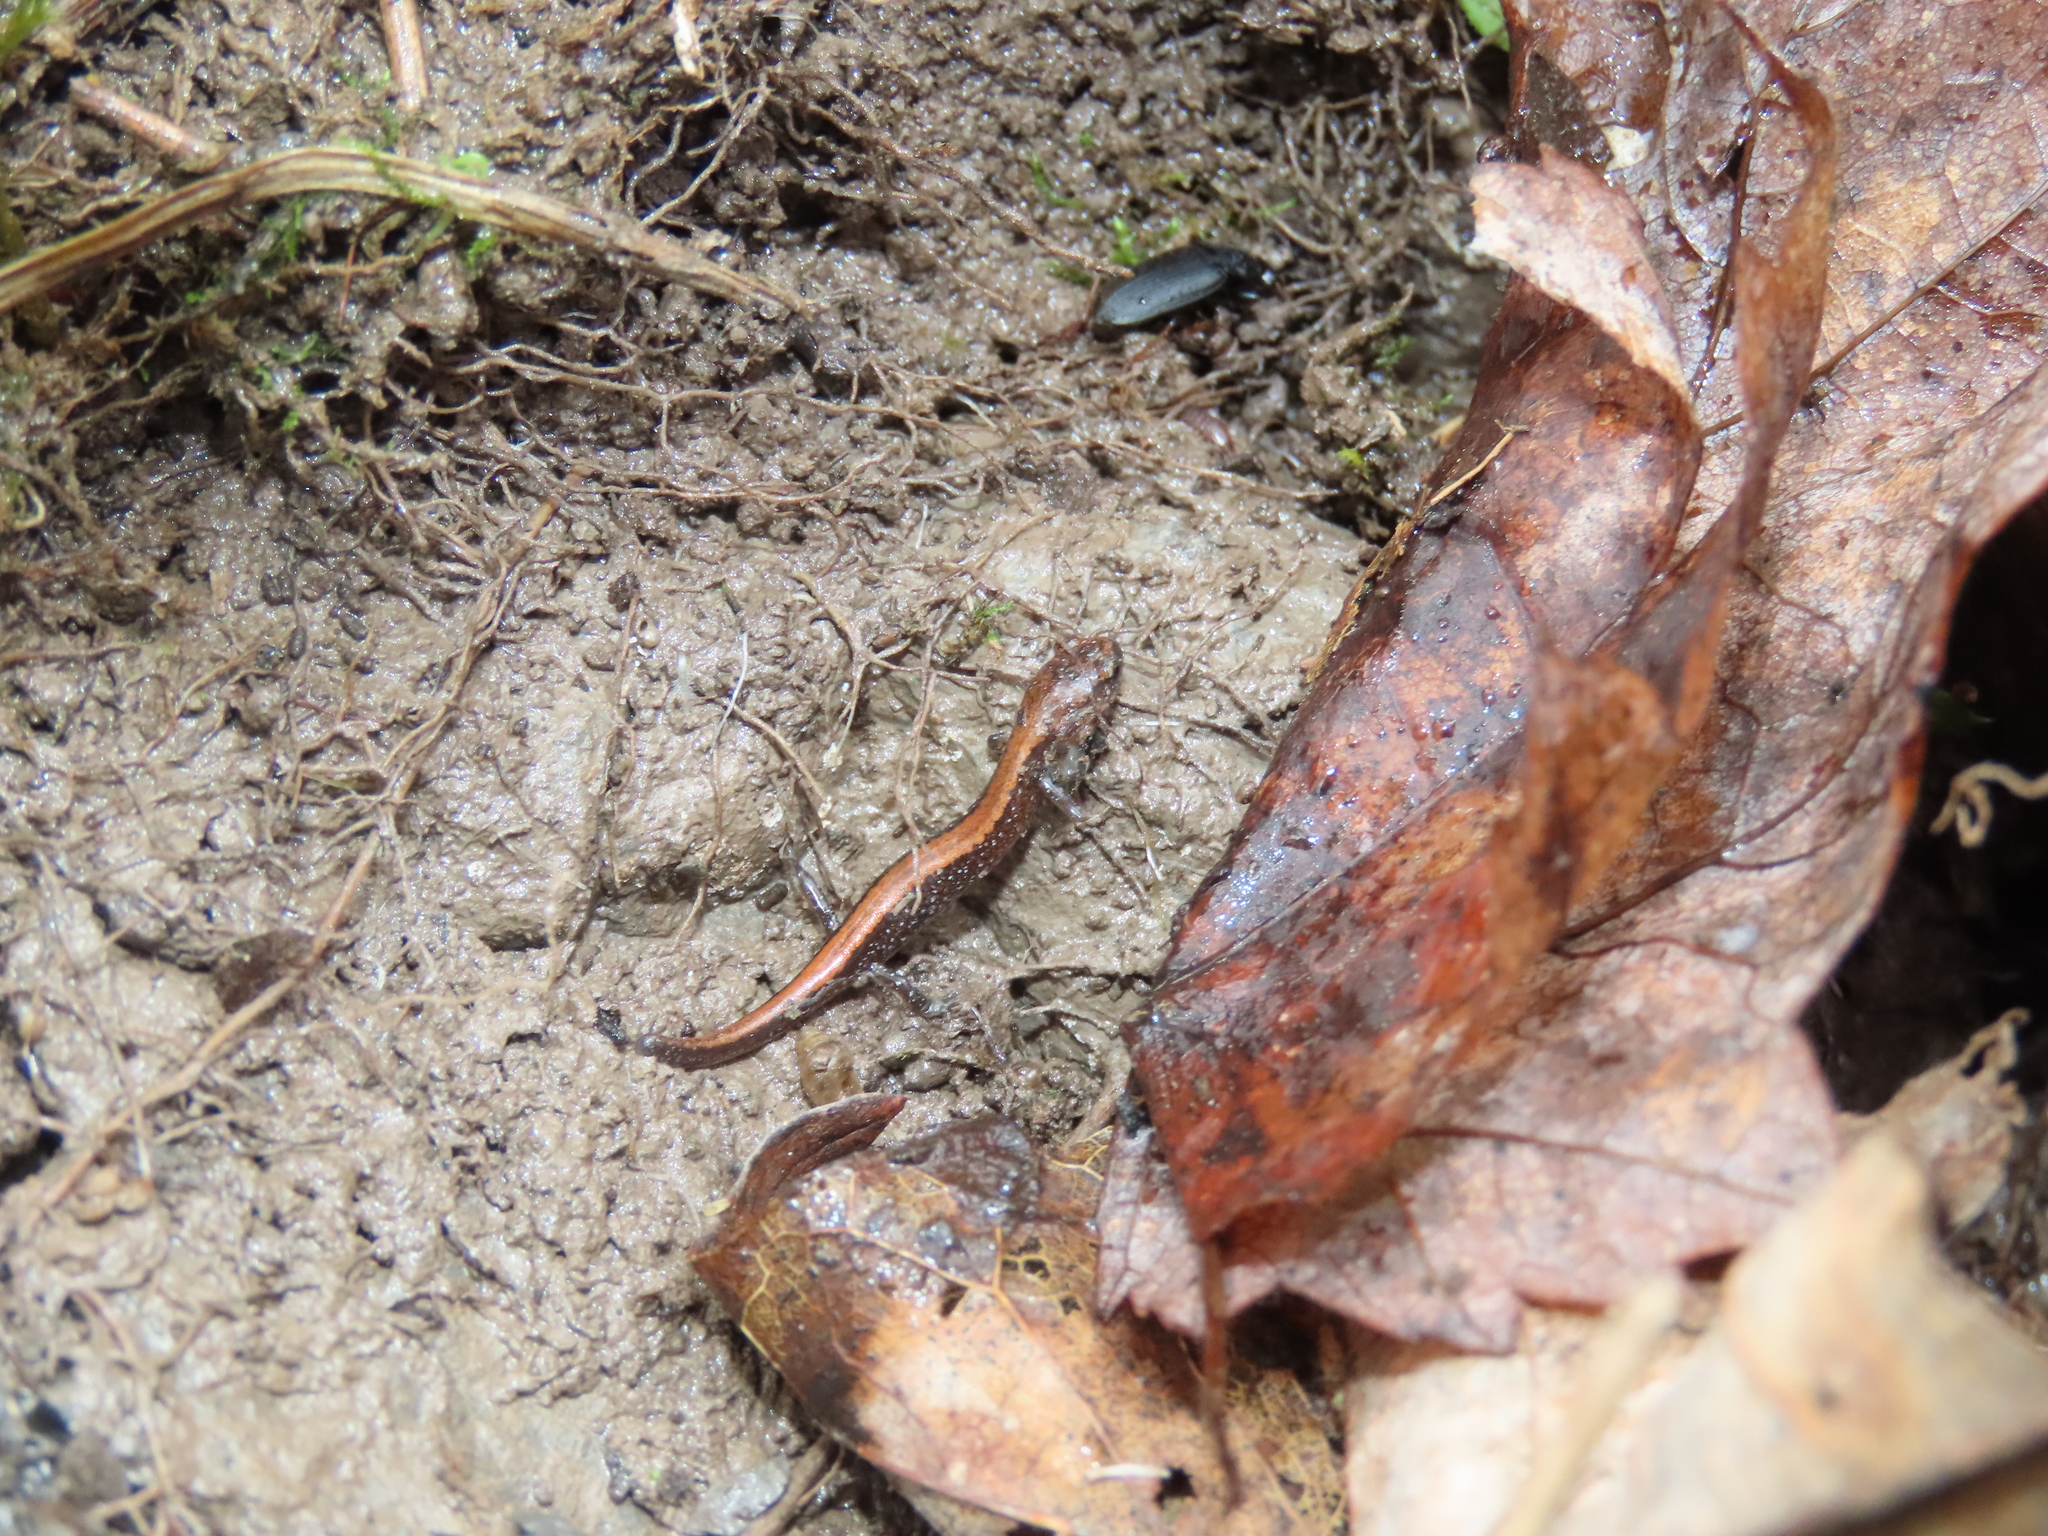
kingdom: Animalia
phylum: Chordata
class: Amphibia
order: Caudata
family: Plethodontidae
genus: Plethodon
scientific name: Plethodon cinereus
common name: Redback salamander
